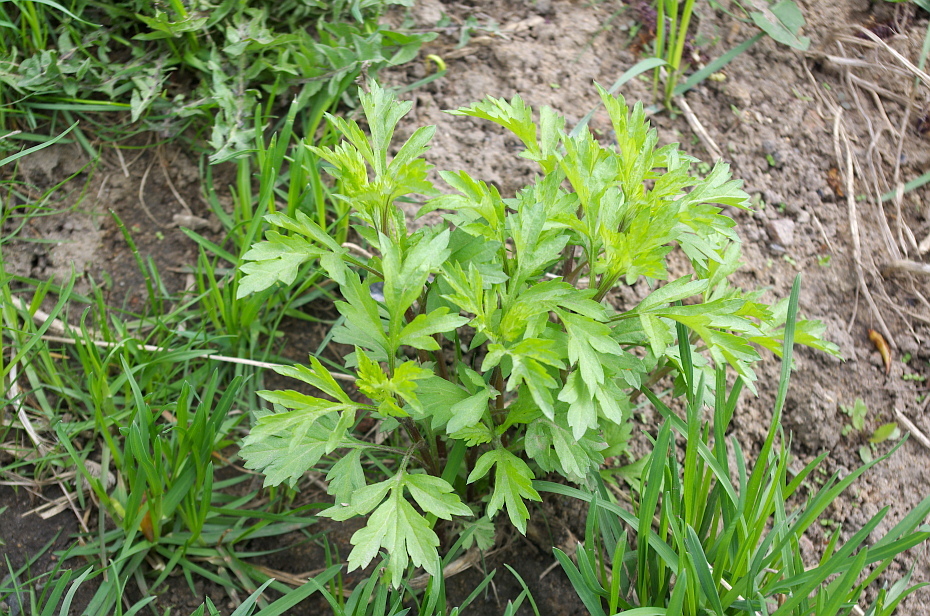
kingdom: Plantae
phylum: Tracheophyta
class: Magnoliopsida
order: Asterales
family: Asteraceae
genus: Artemisia
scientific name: Artemisia vulgaris
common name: Mugwort
